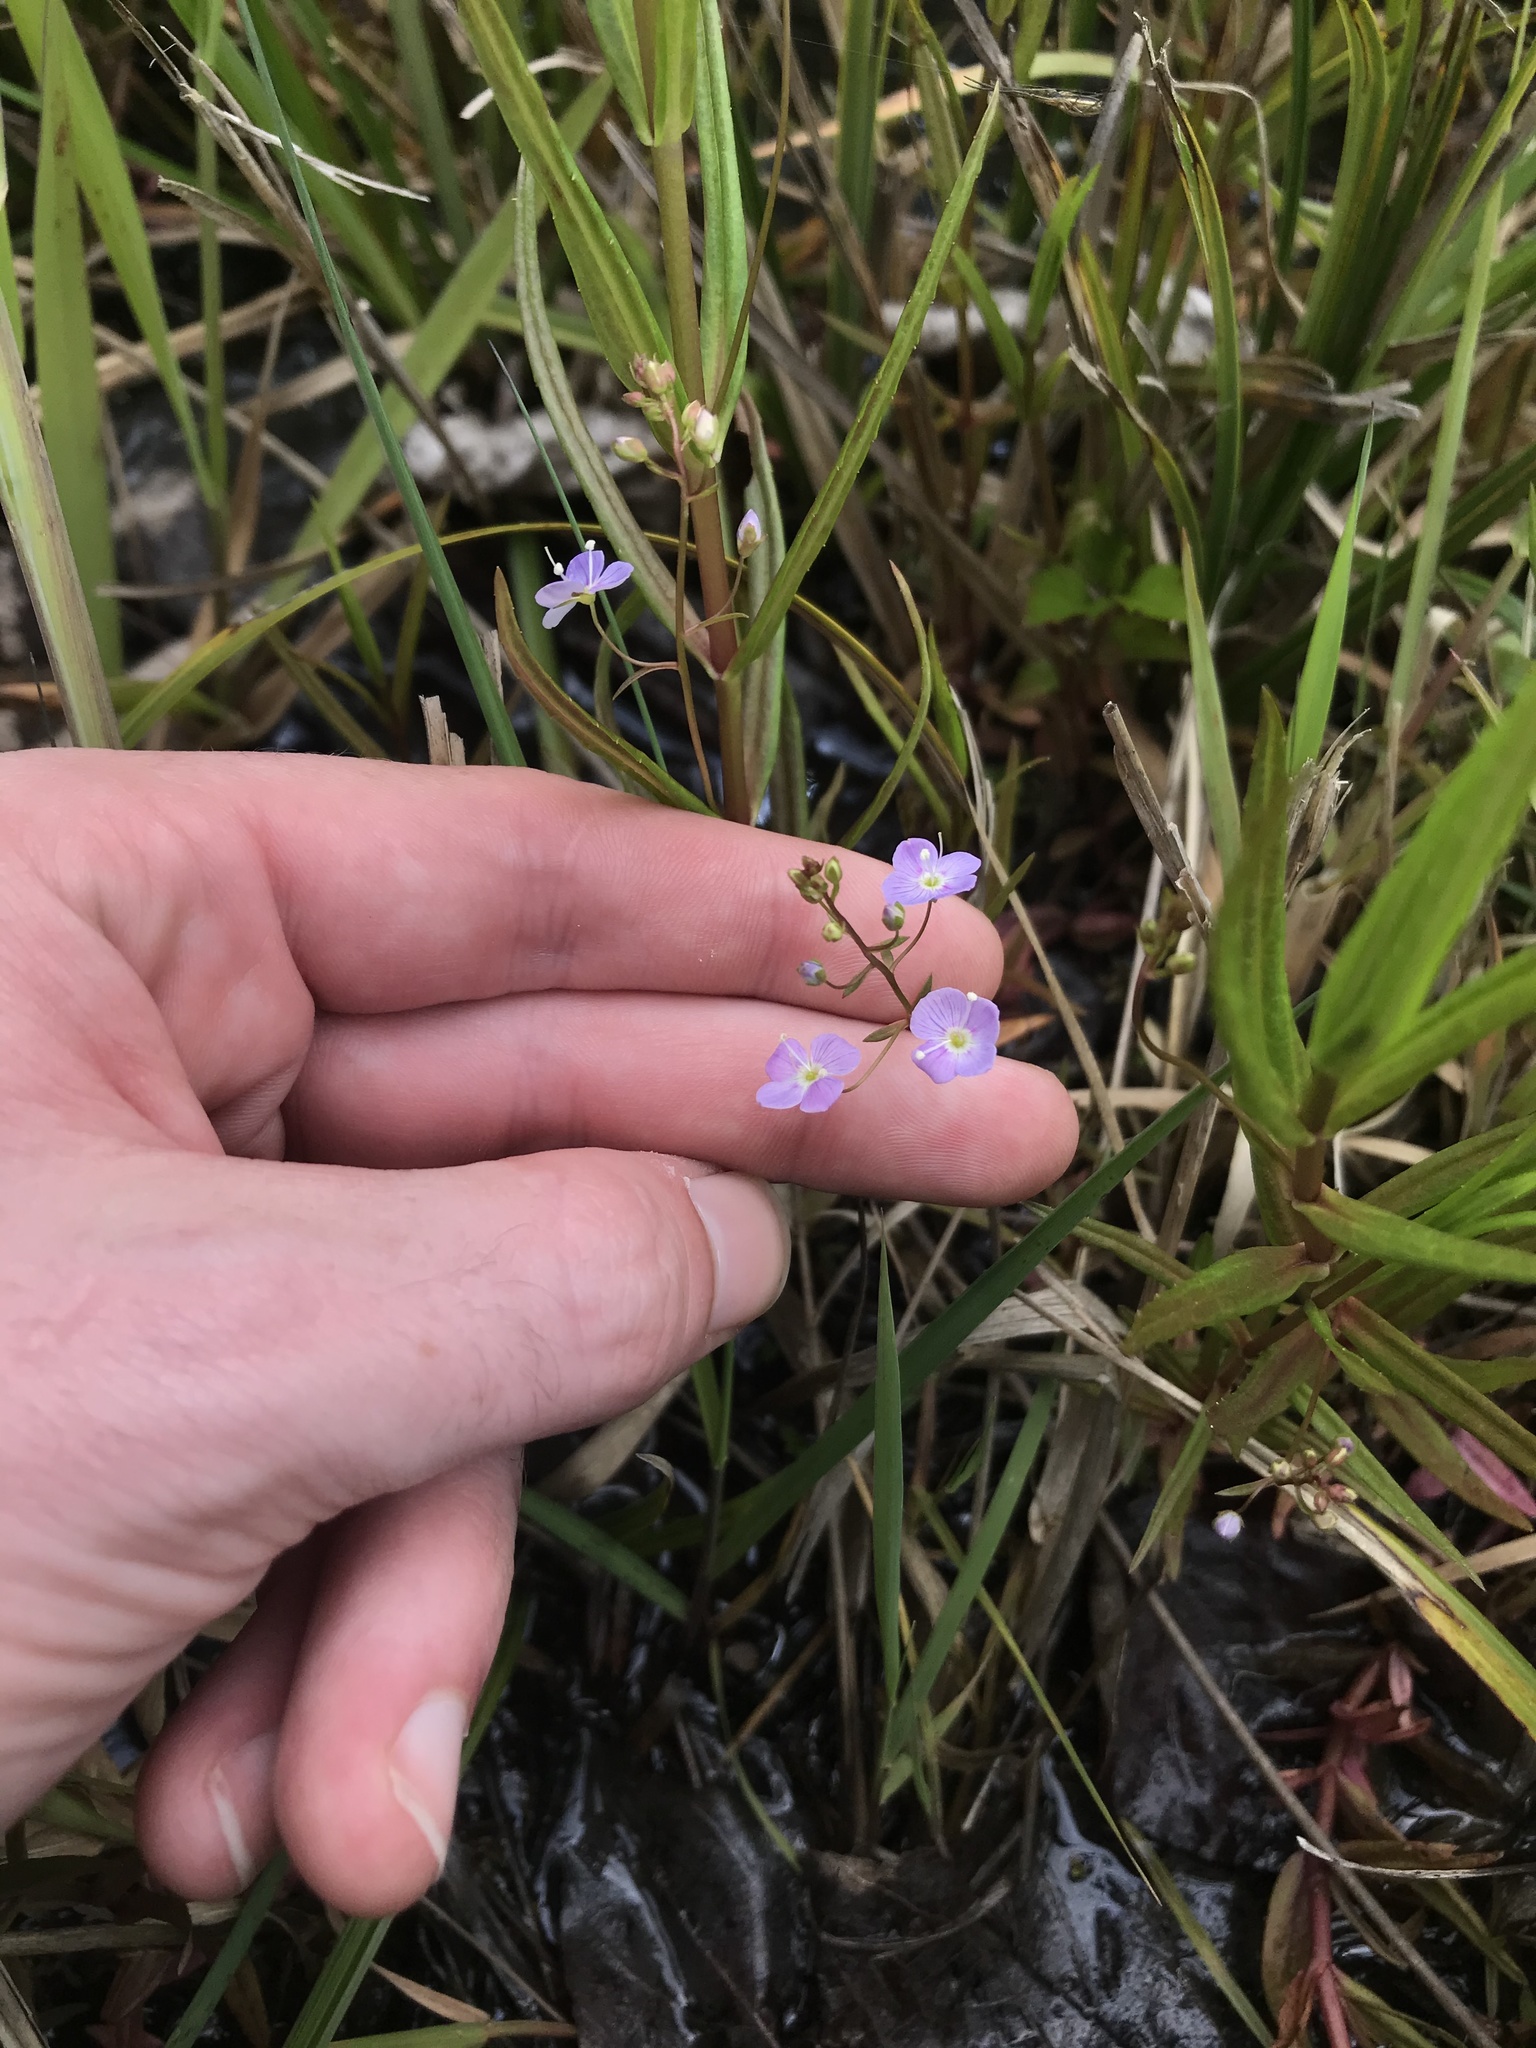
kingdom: Plantae
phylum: Tracheophyta
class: Magnoliopsida
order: Lamiales
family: Plantaginaceae
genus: Veronica
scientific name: Veronica scutellata
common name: Marsh speedwell
